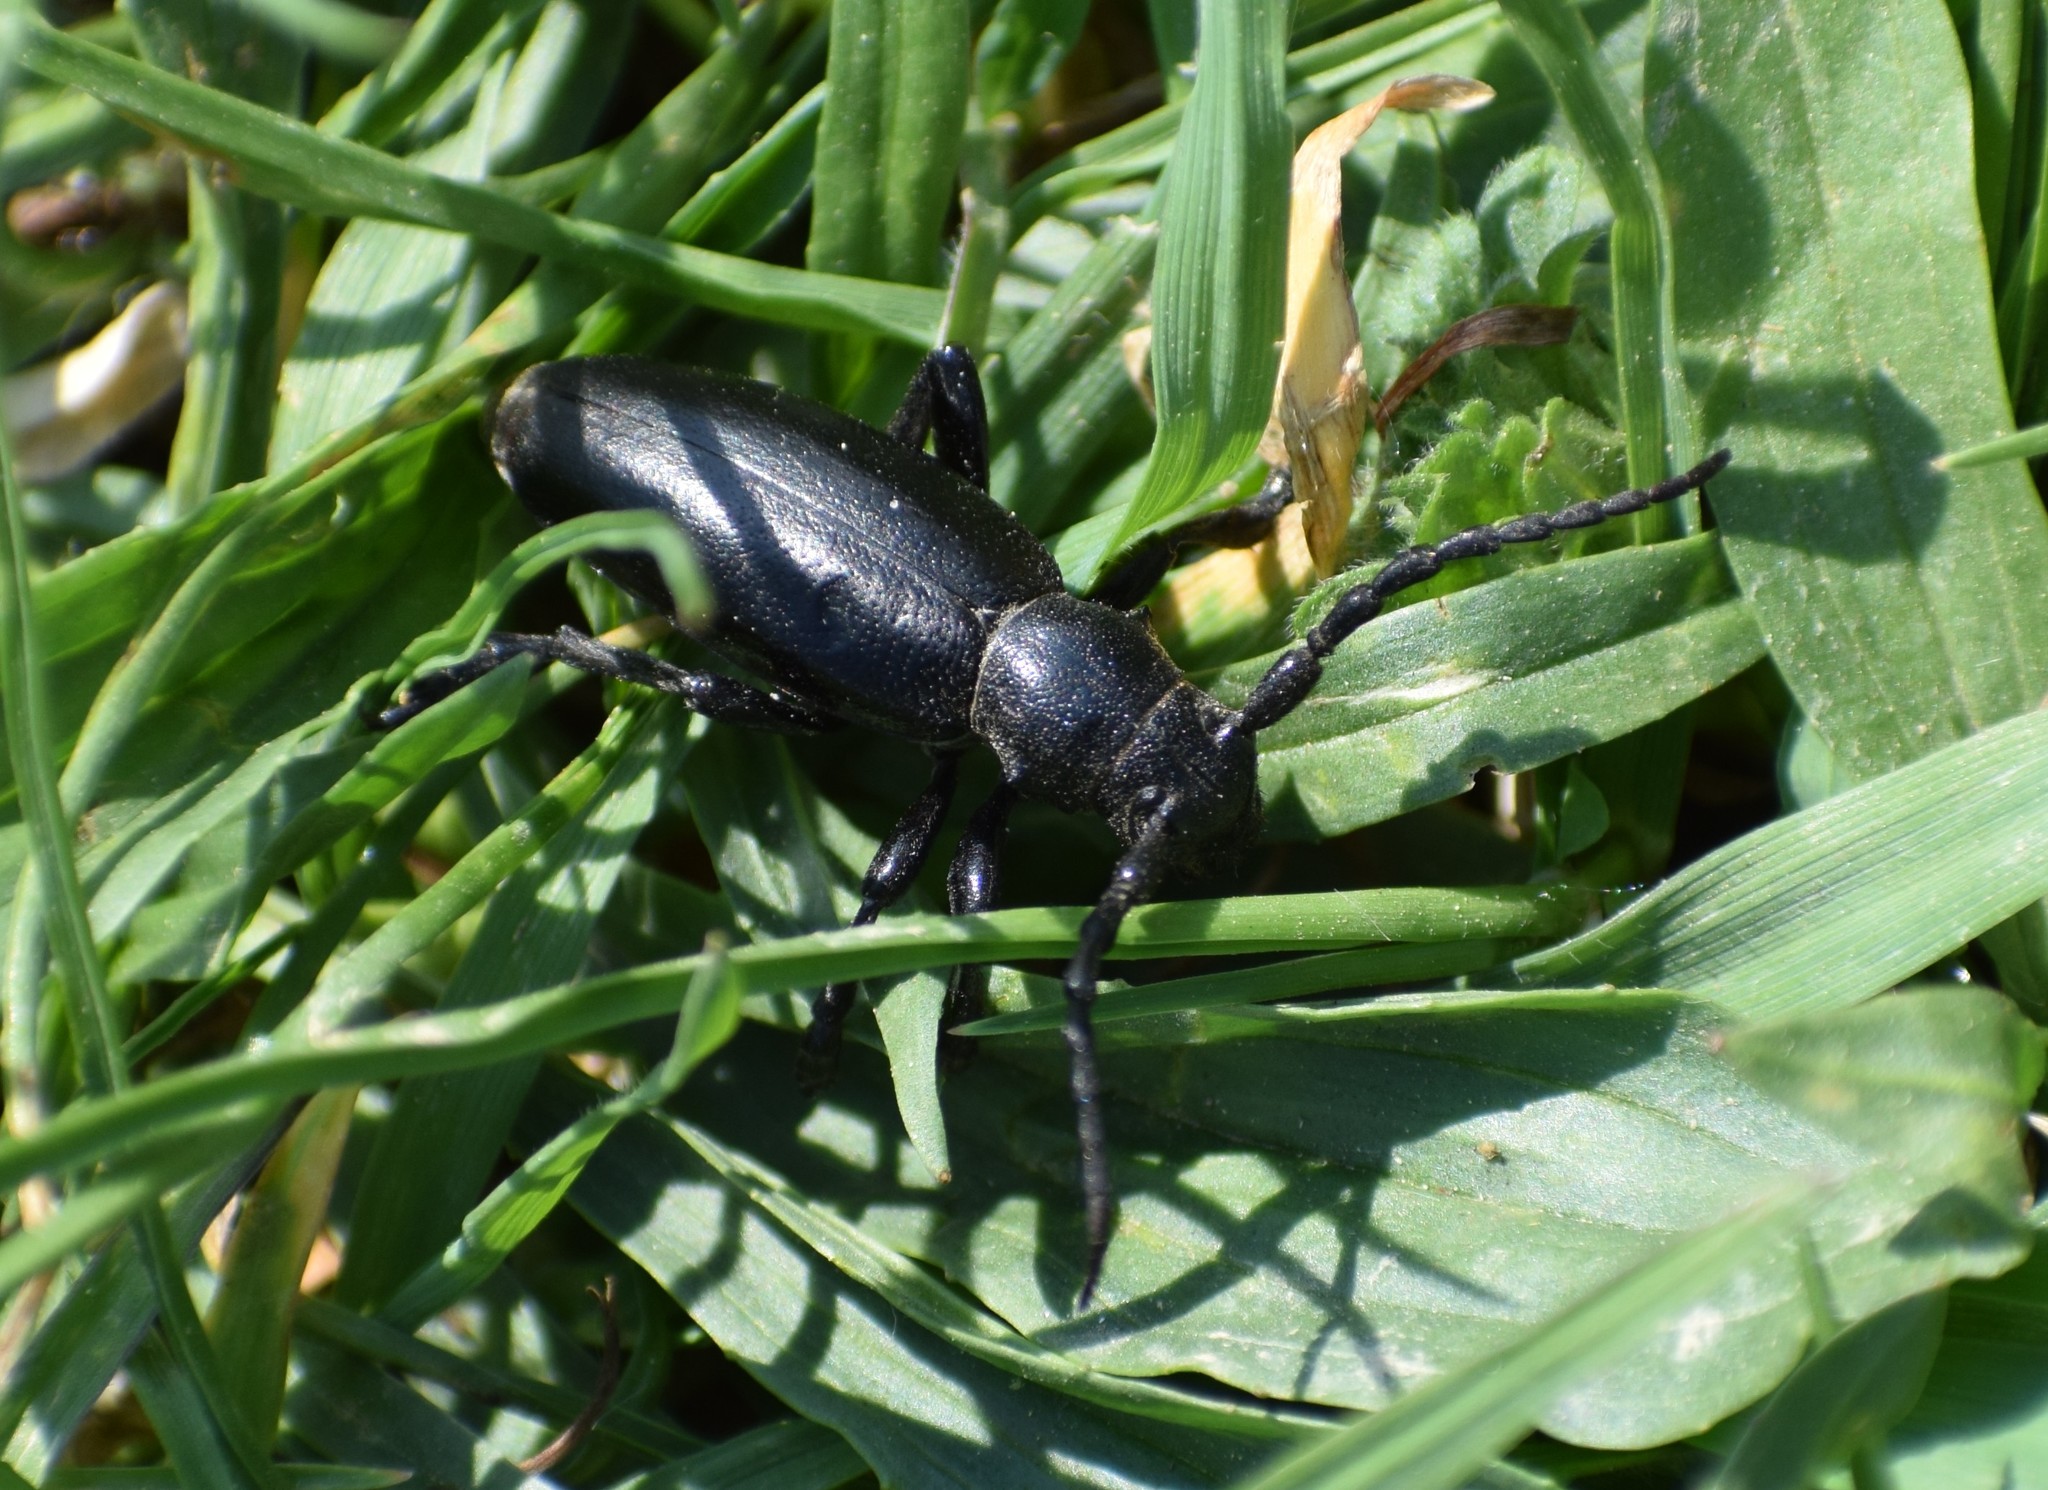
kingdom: Animalia
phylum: Arthropoda
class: Insecta
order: Coleoptera
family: Cerambycidae
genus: Dorcadion
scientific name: Dorcadion aethiops
